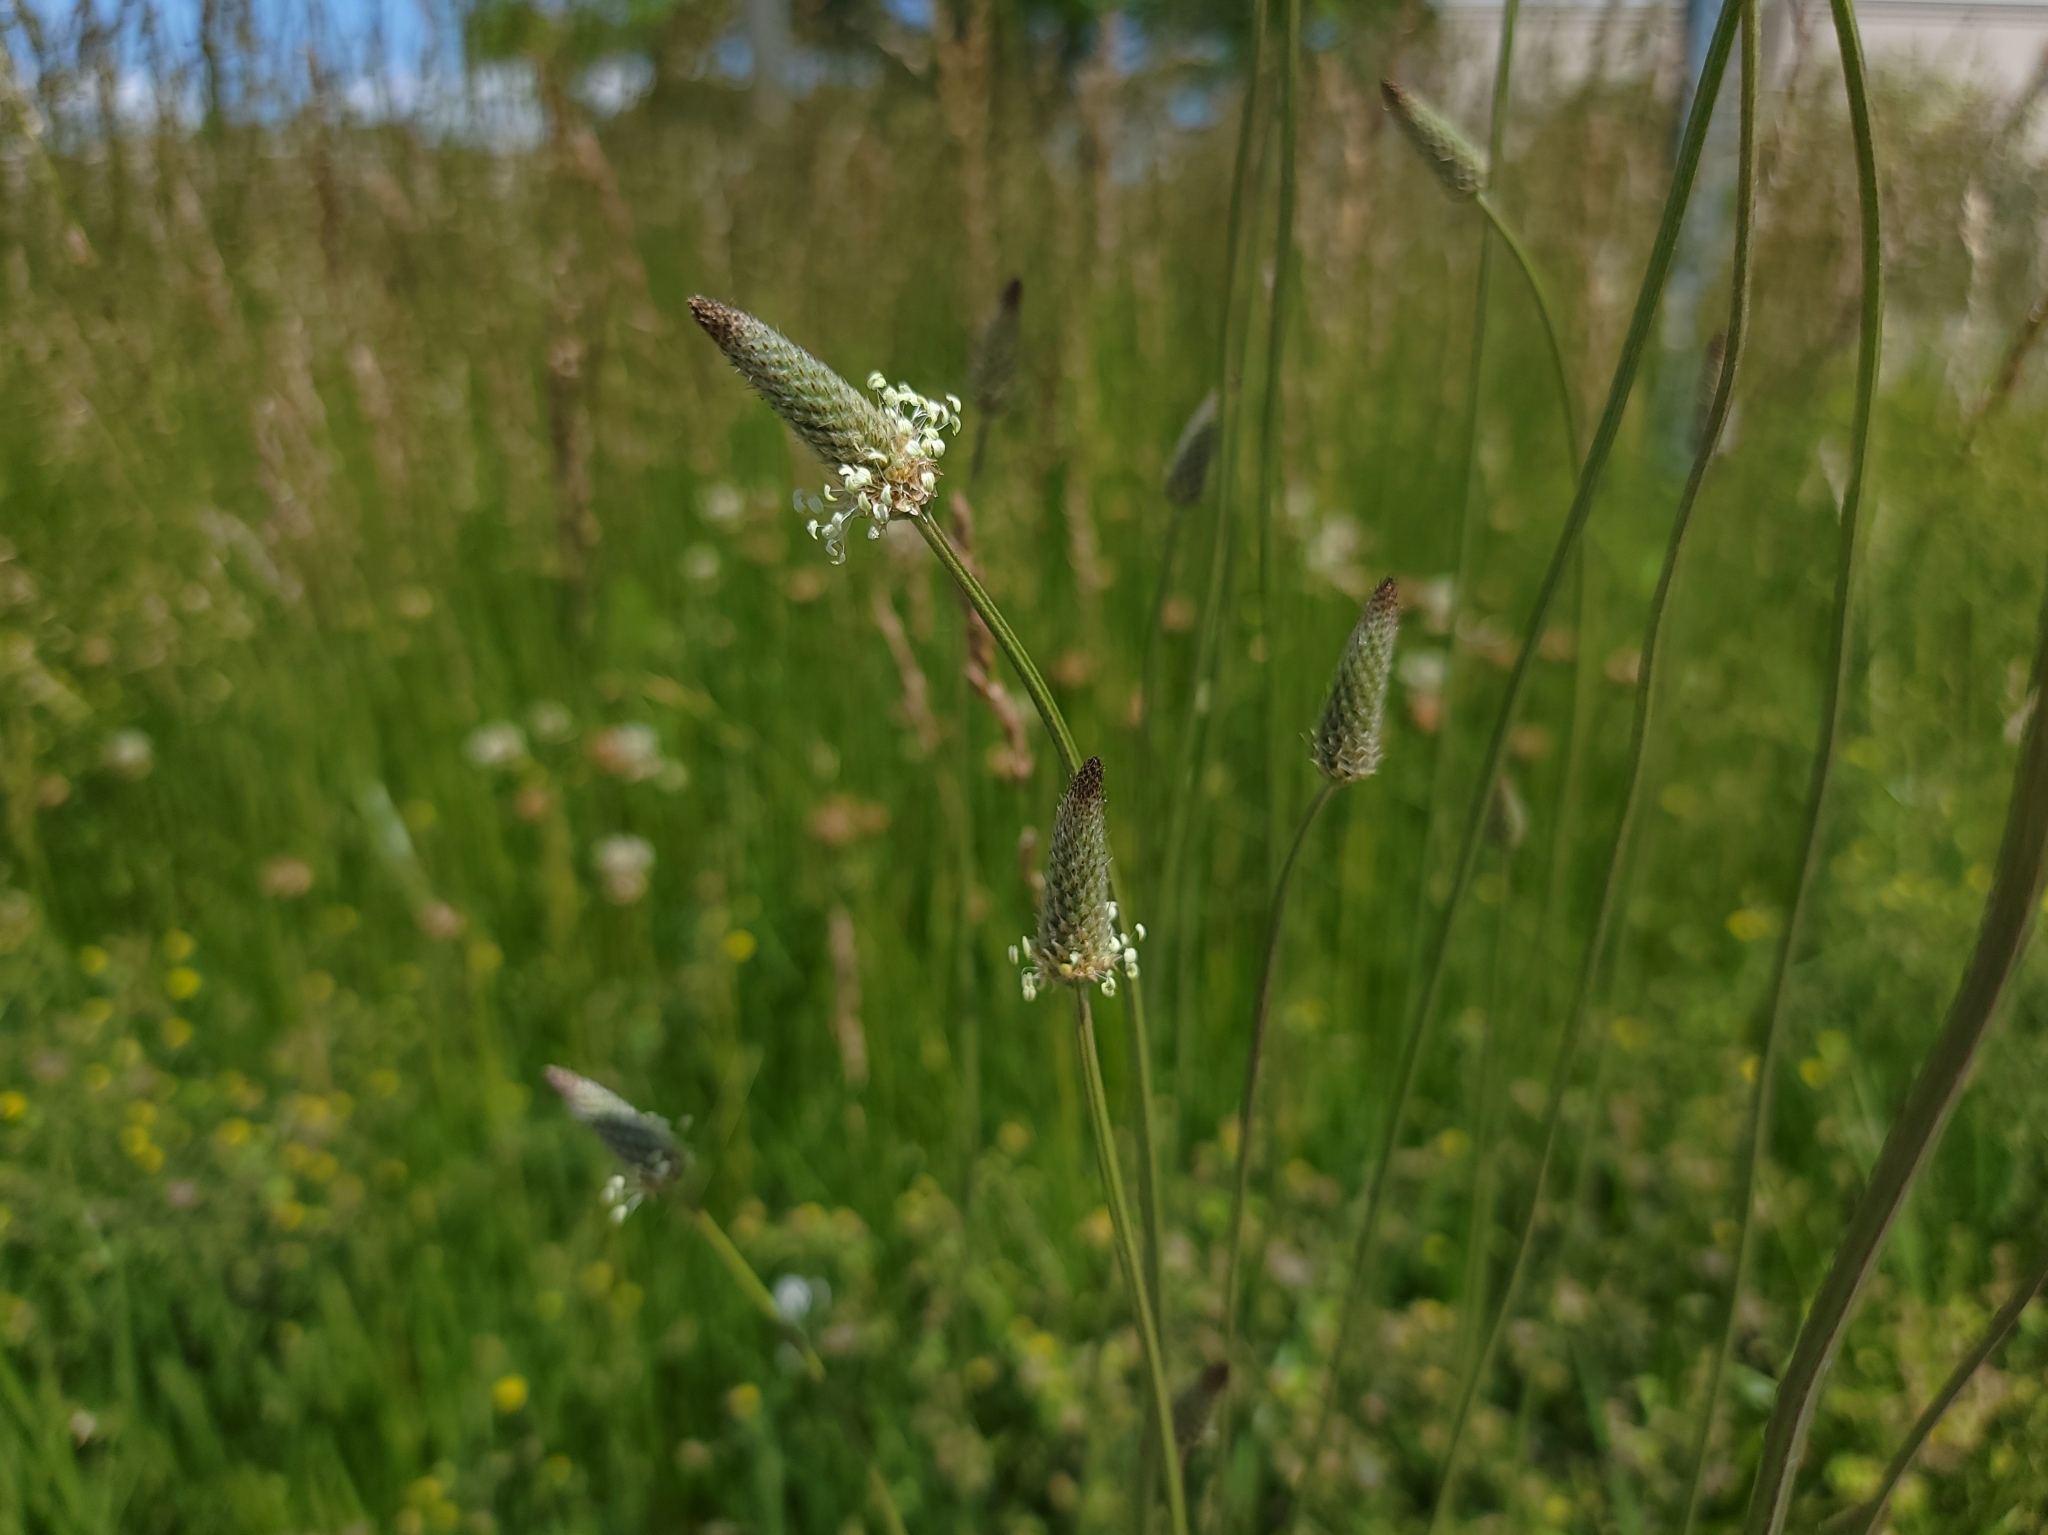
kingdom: Plantae
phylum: Tracheophyta
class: Magnoliopsida
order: Lamiales
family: Plantaginaceae
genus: Plantago
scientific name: Plantago lanceolata
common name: Ribwort plantain
